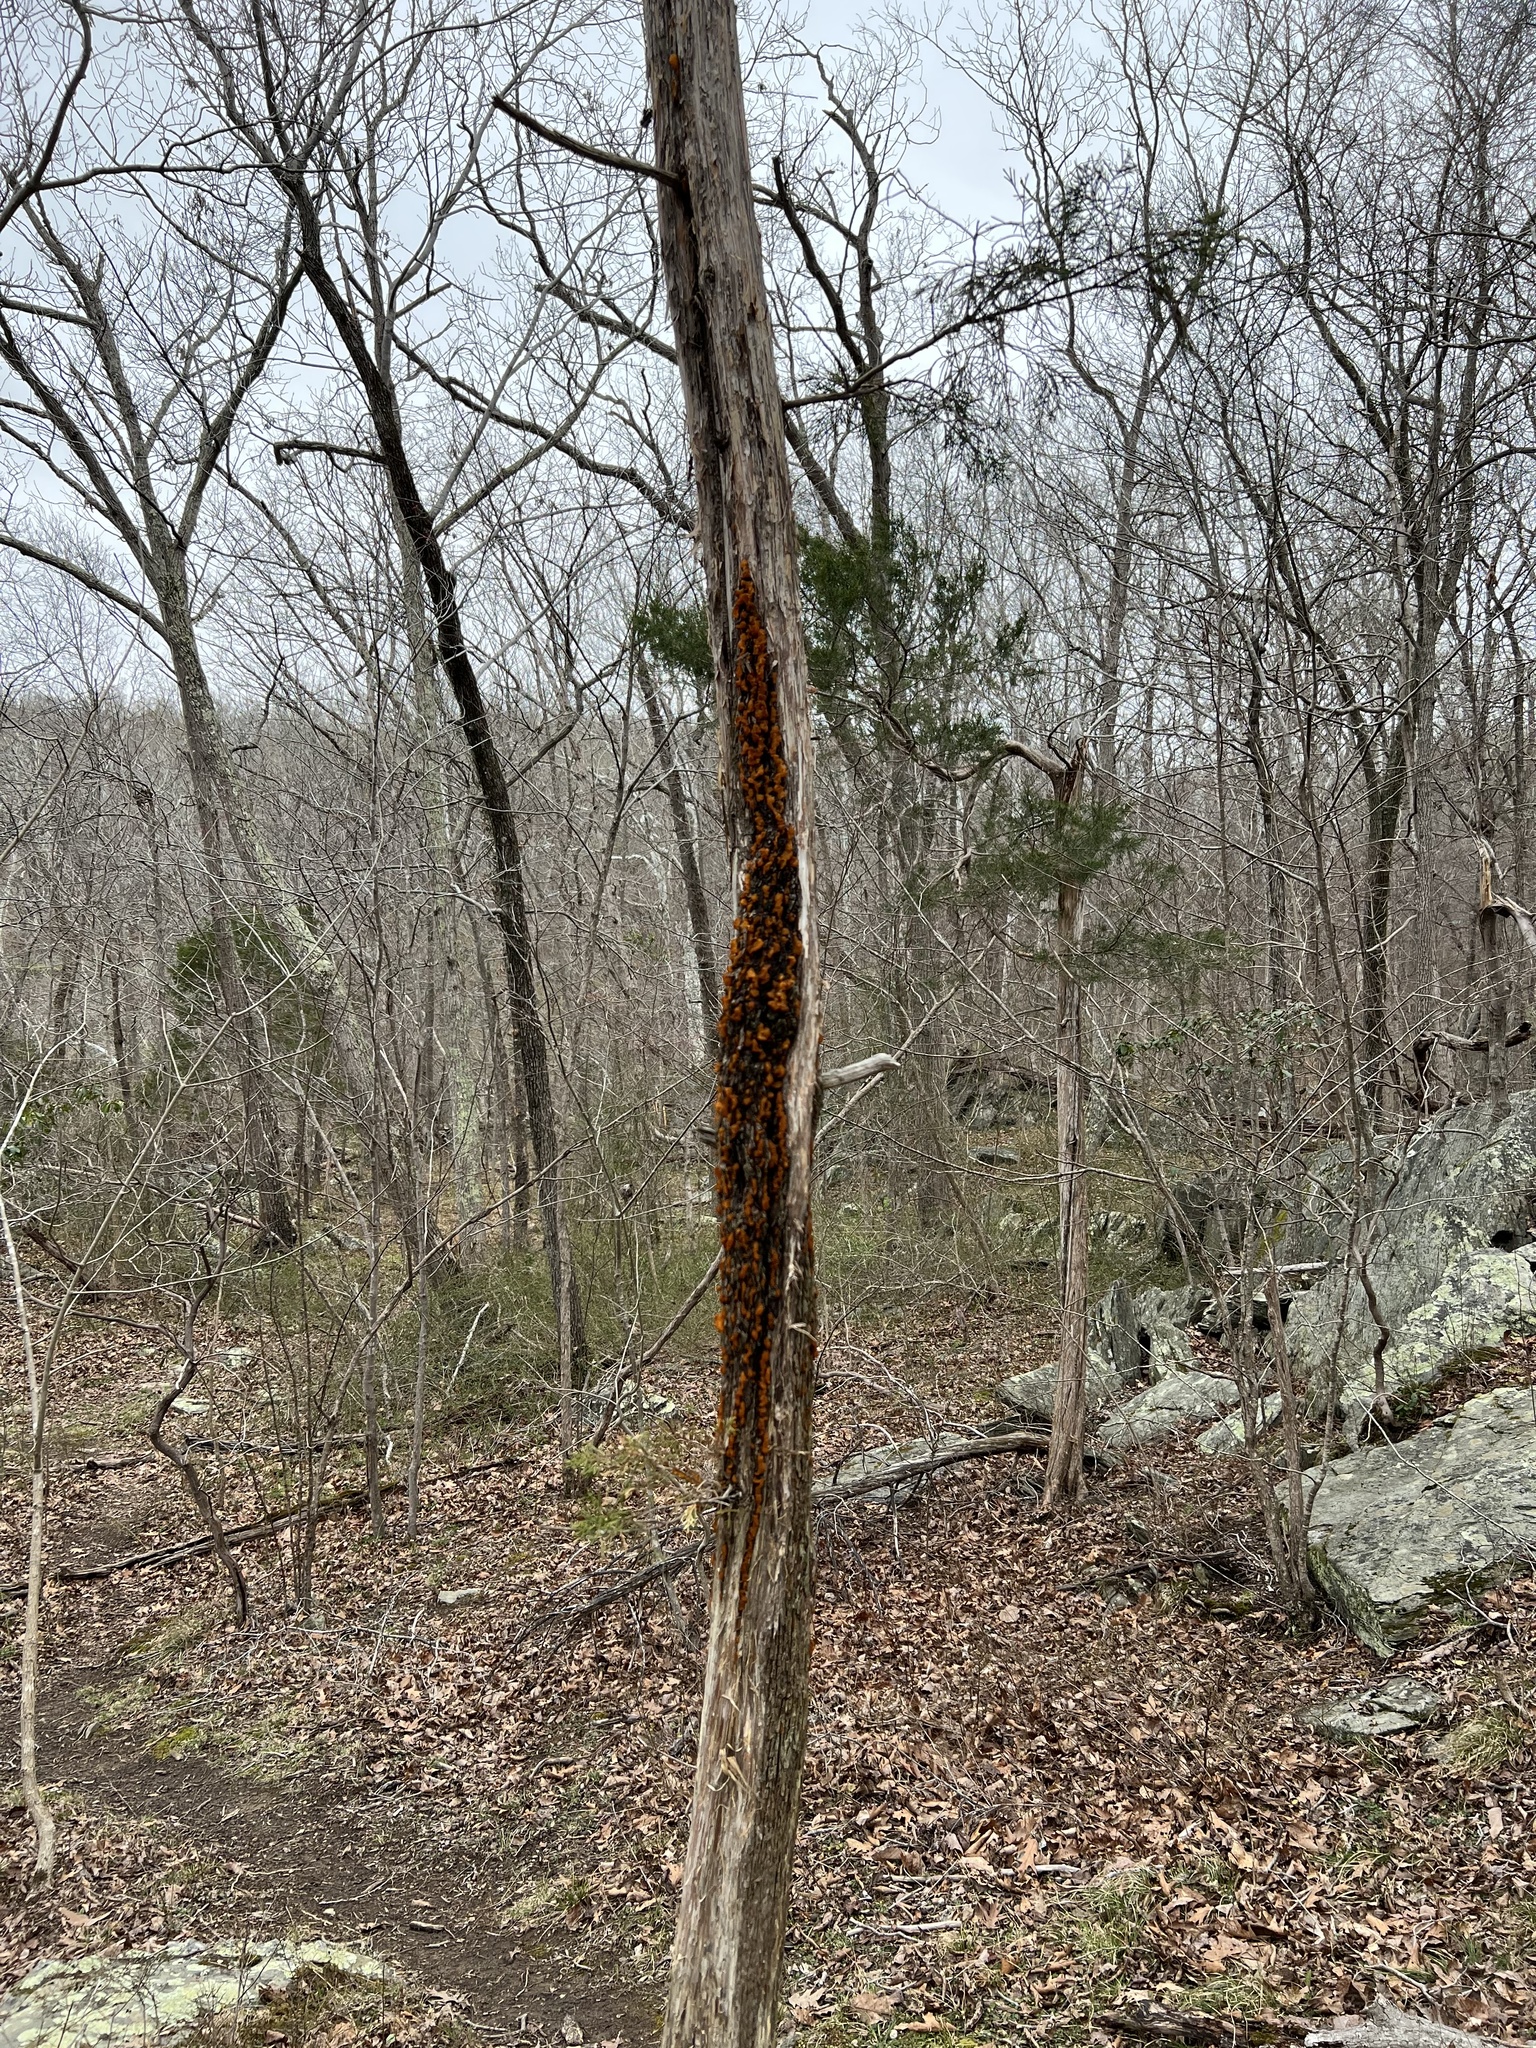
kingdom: Fungi
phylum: Basidiomycota
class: Pucciniomycetes
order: Pucciniales
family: Gymnosporangiaceae
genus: Gymnosporangium
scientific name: Gymnosporangium effusum
